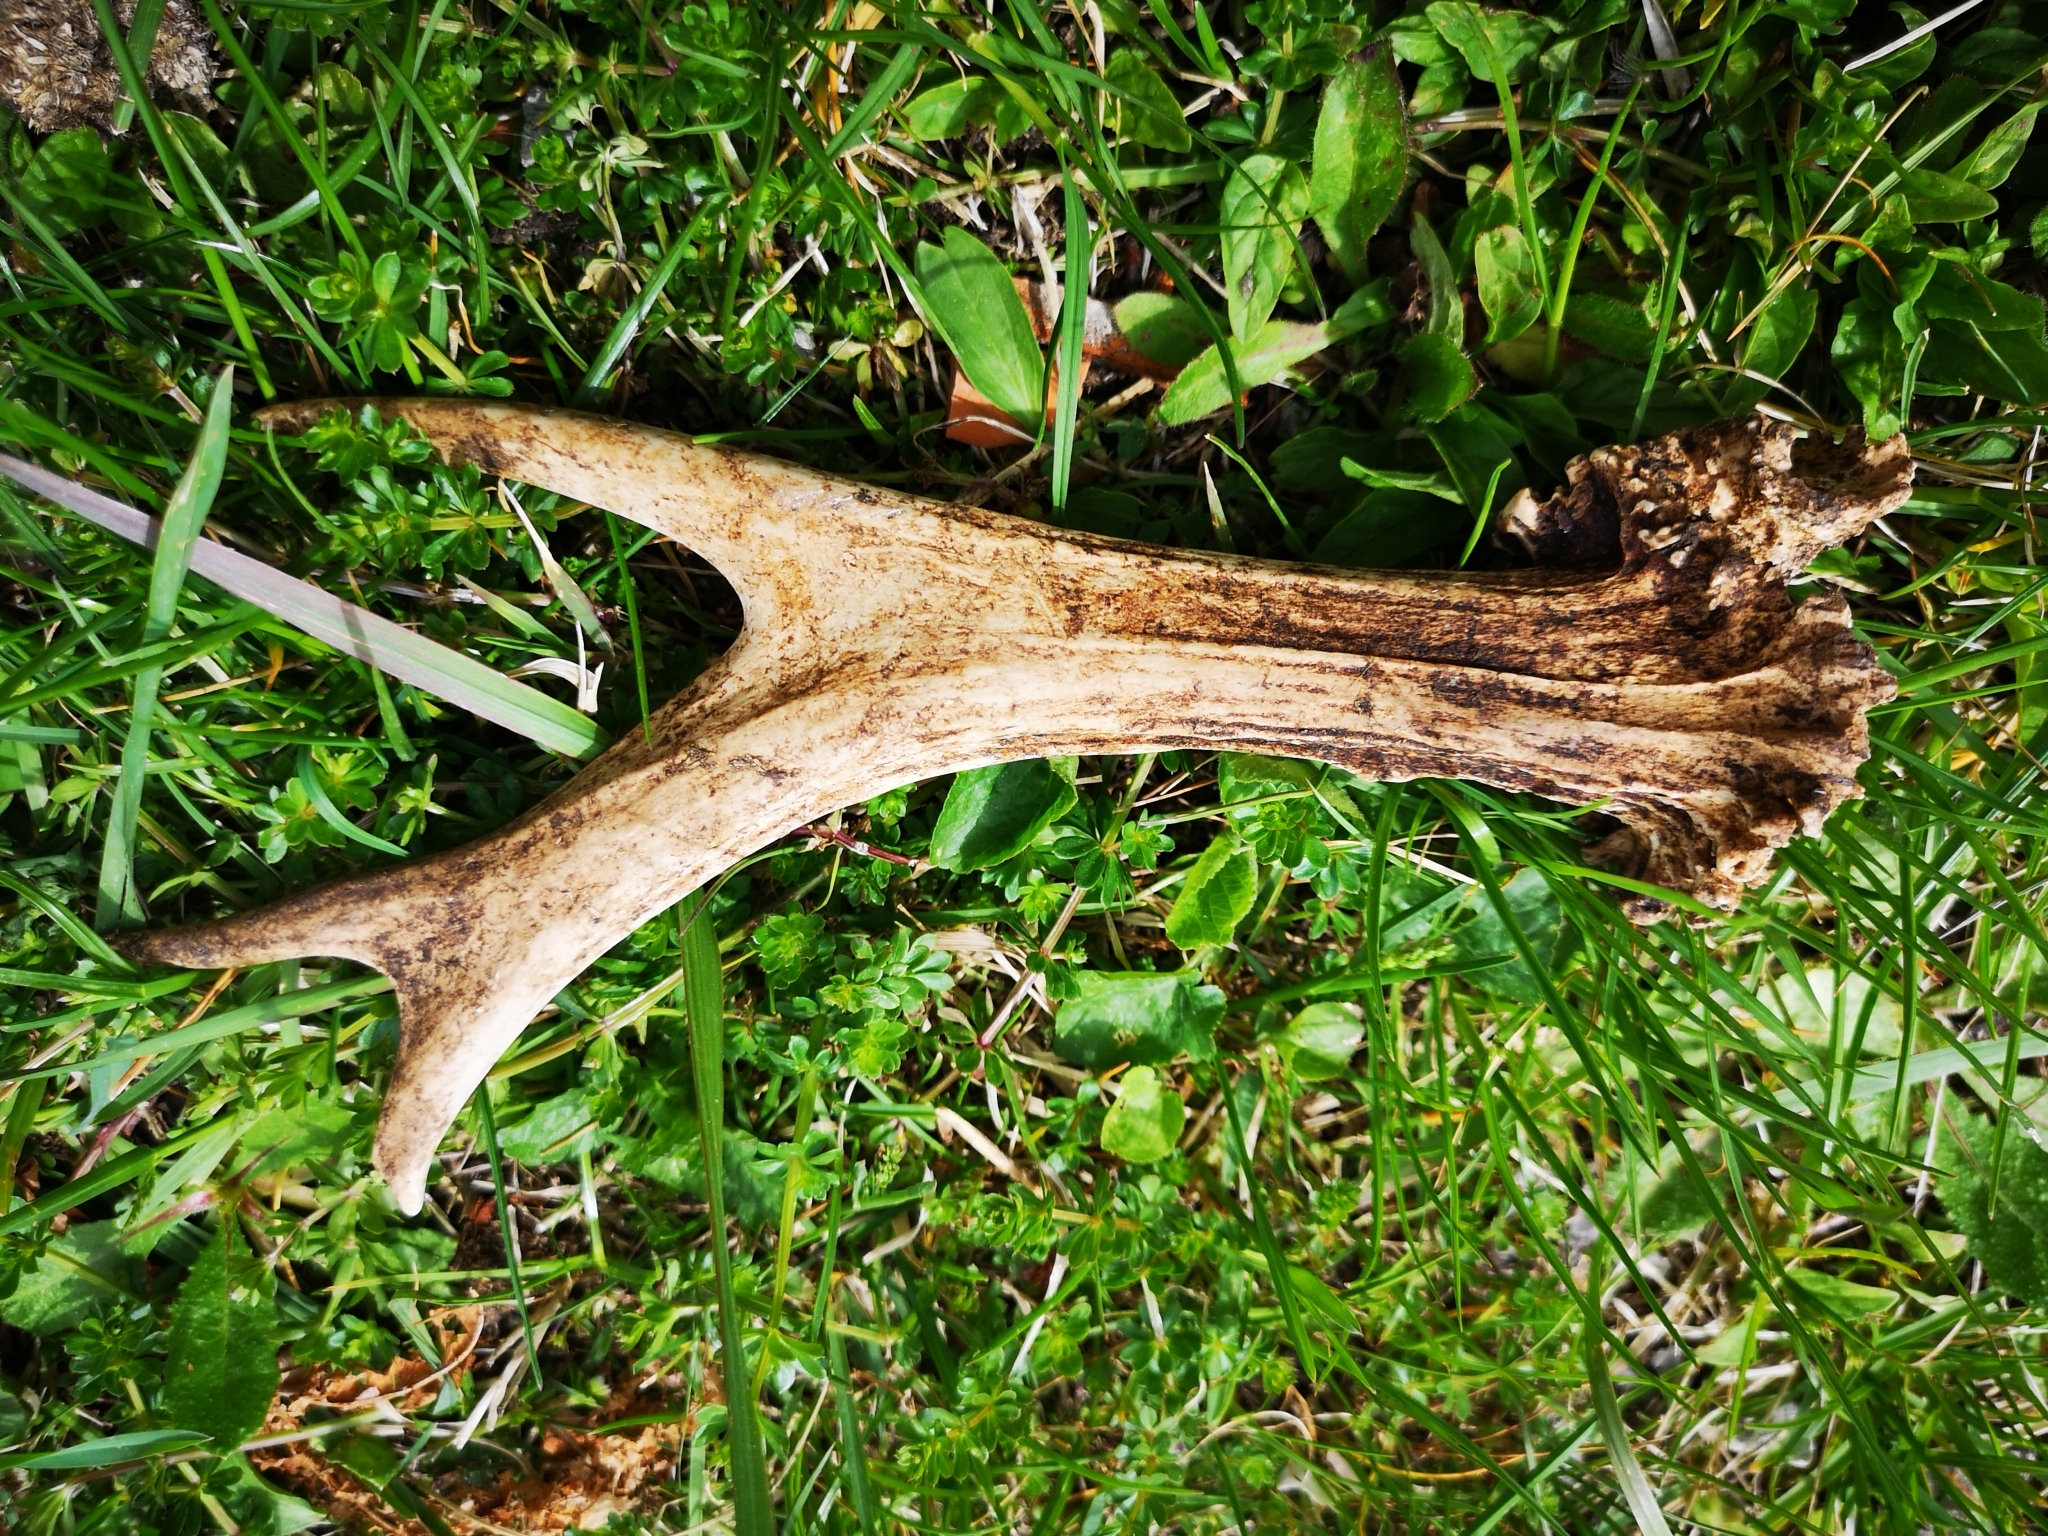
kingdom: Animalia
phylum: Chordata
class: Mammalia
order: Artiodactyla
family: Cervidae
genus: Capreolus
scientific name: Capreolus capreolus
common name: Western roe deer
